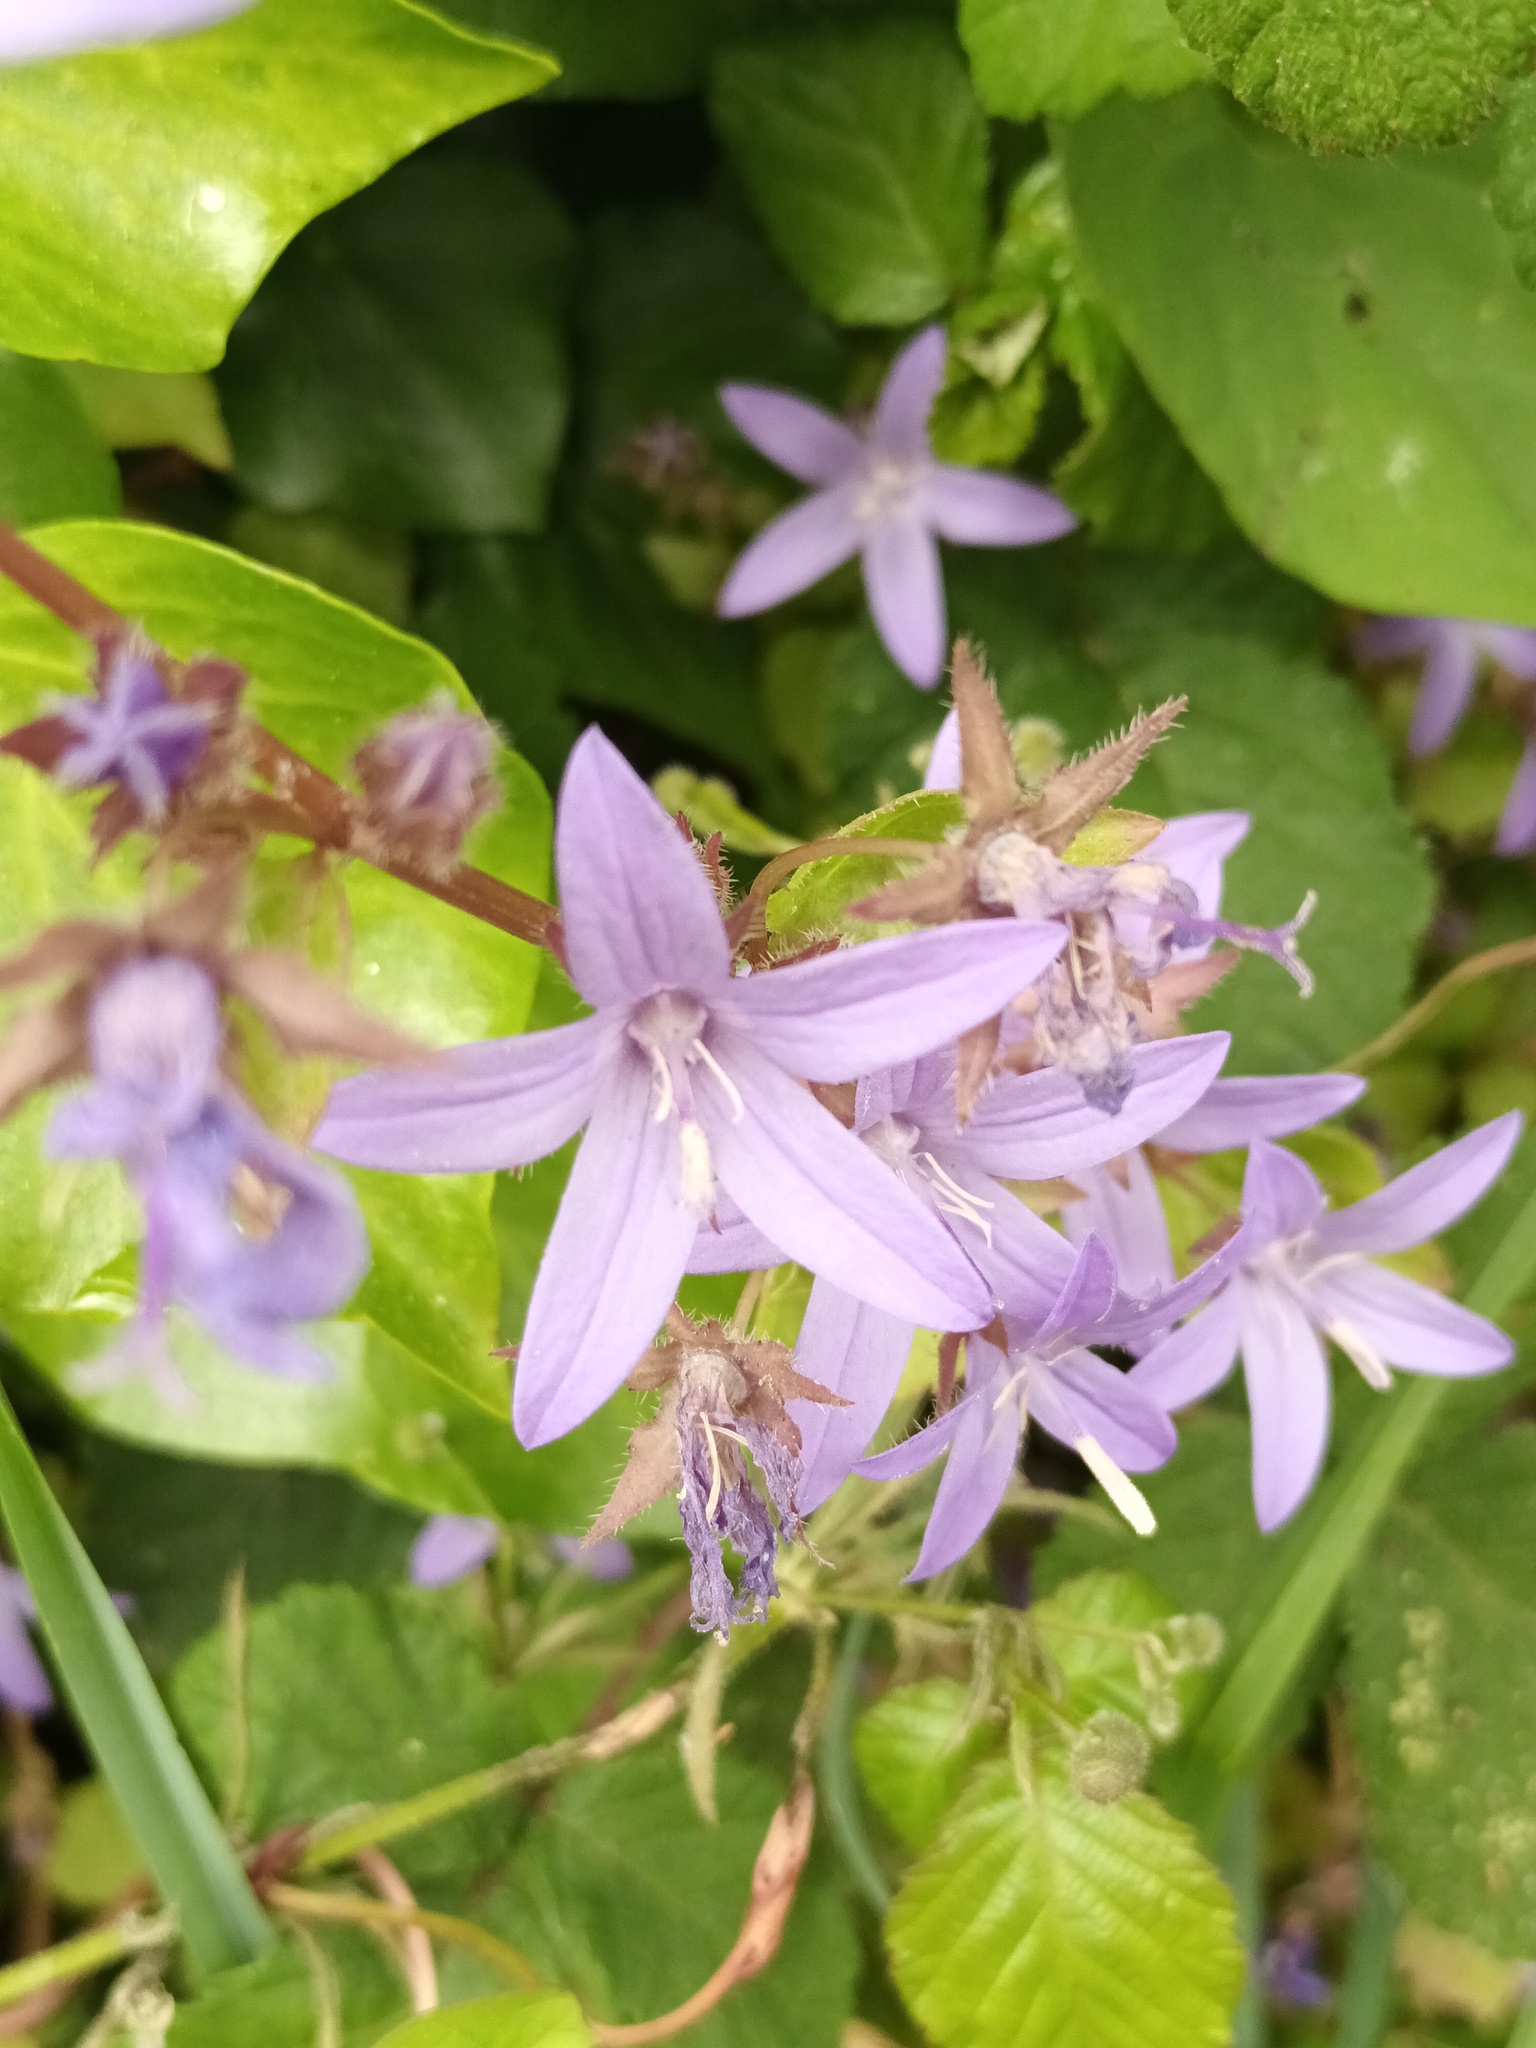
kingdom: Plantae
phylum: Tracheophyta
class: Magnoliopsida
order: Asterales
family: Campanulaceae
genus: Campanula
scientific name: Campanula poscharskyana
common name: Trailing bellflower
